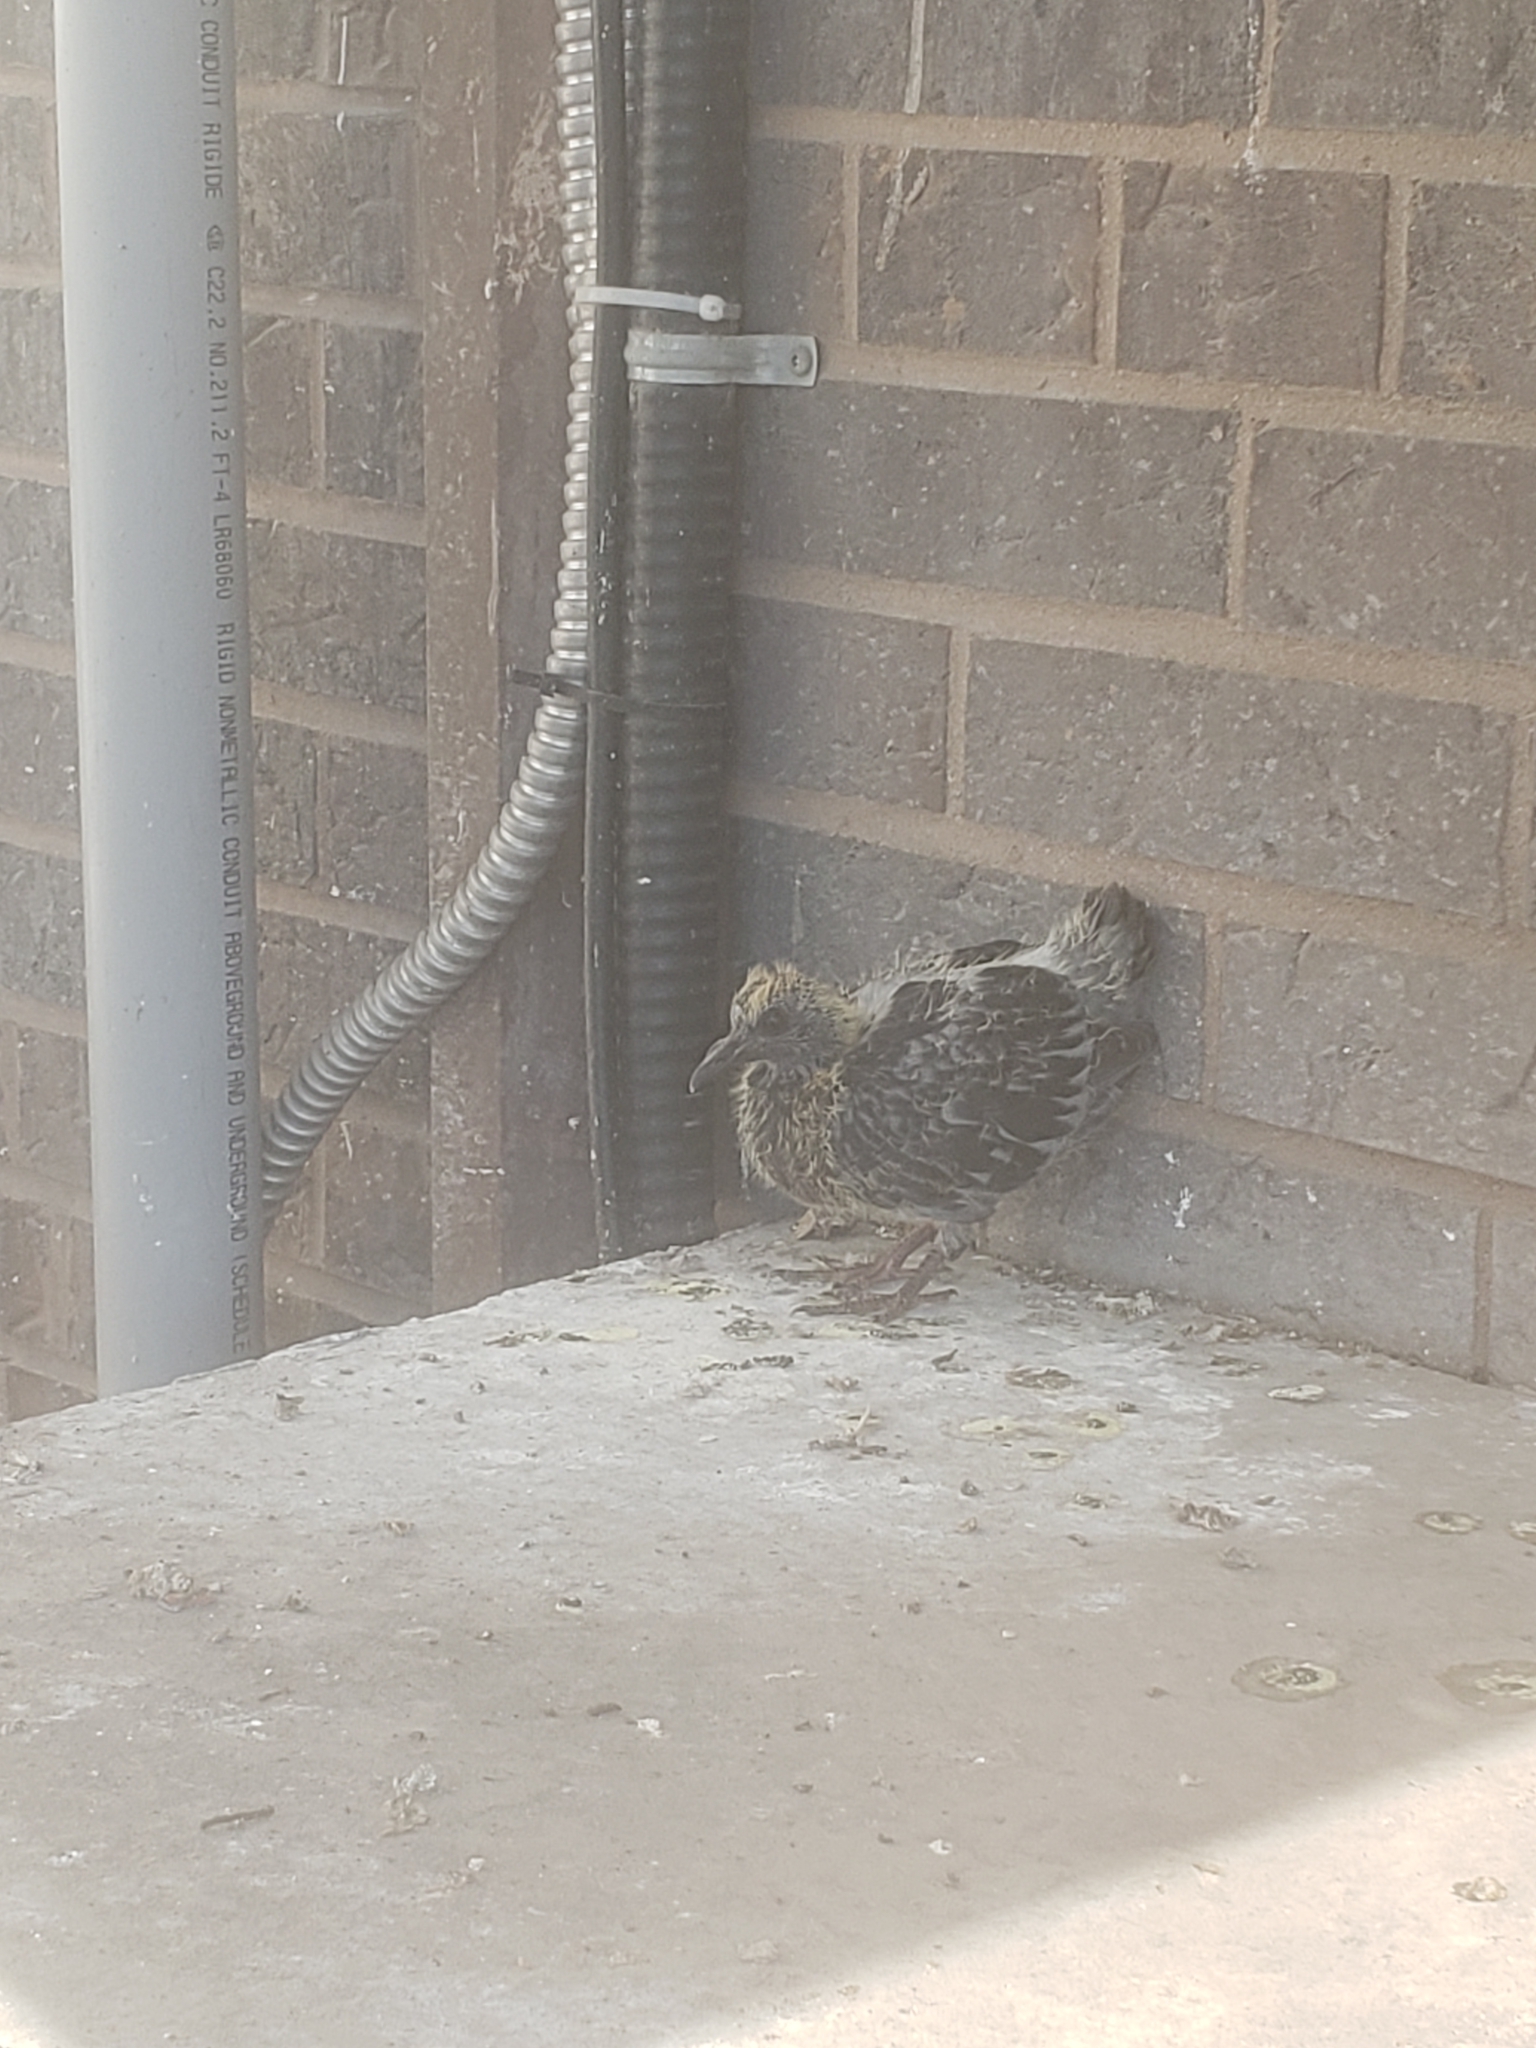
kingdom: Animalia
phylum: Chordata
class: Aves
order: Columbiformes
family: Columbidae
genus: Columba
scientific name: Columba livia
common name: Rock pigeon
